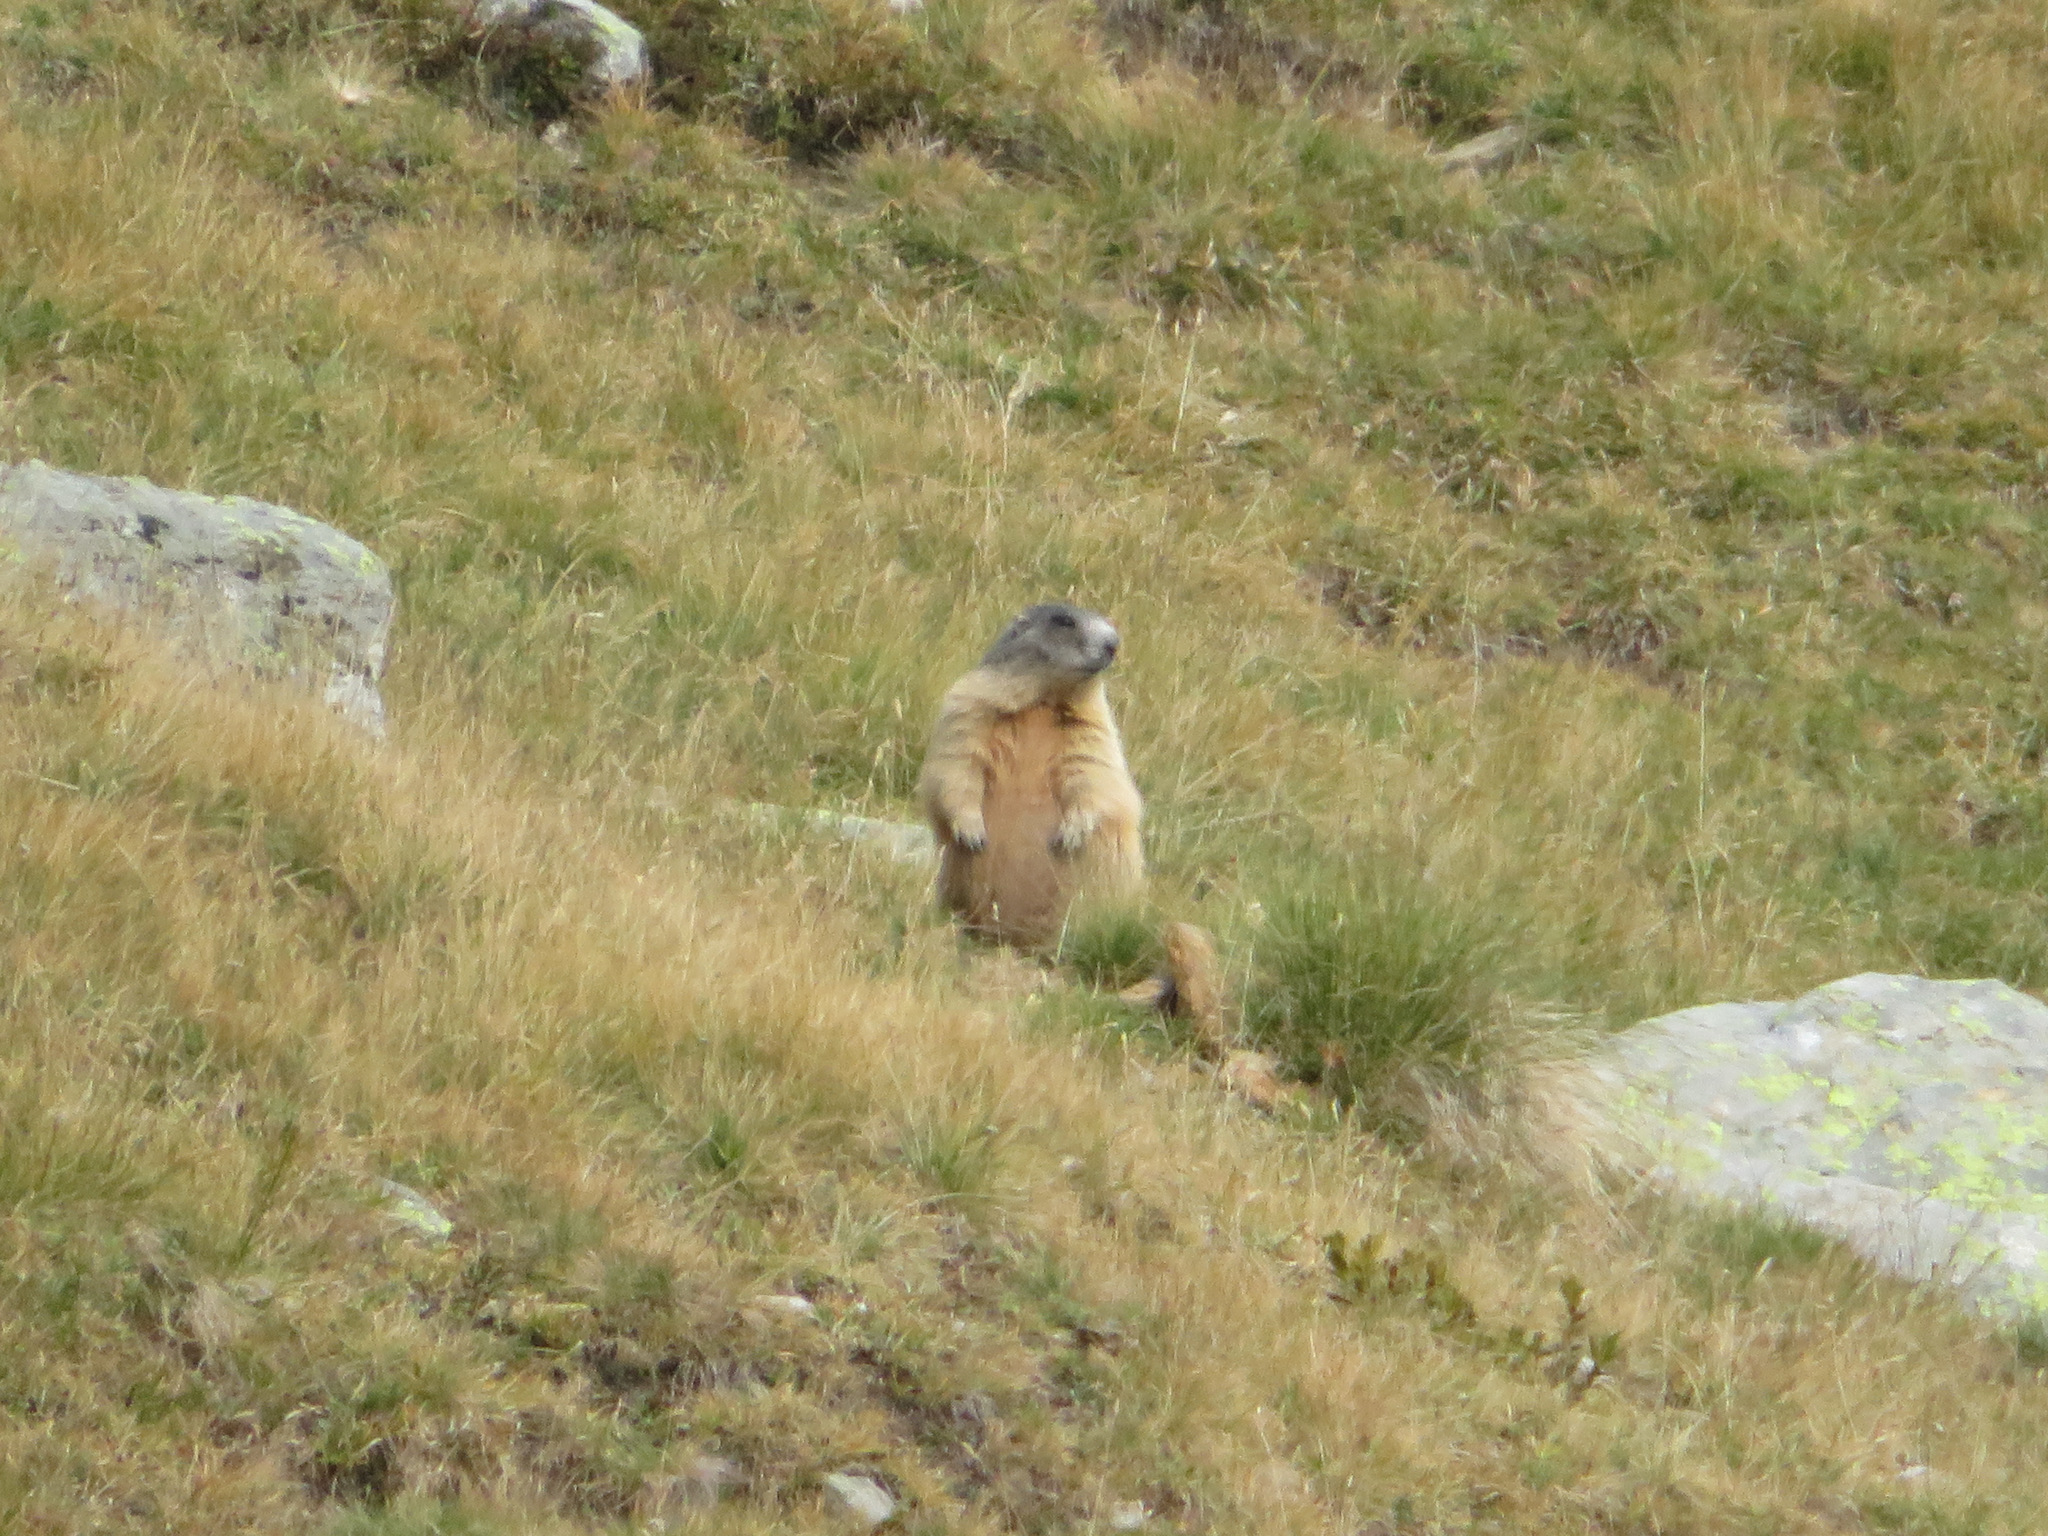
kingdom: Animalia
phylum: Chordata
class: Mammalia
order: Rodentia
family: Sciuridae
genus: Marmota
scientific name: Marmota marmota
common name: Alpine marmot
